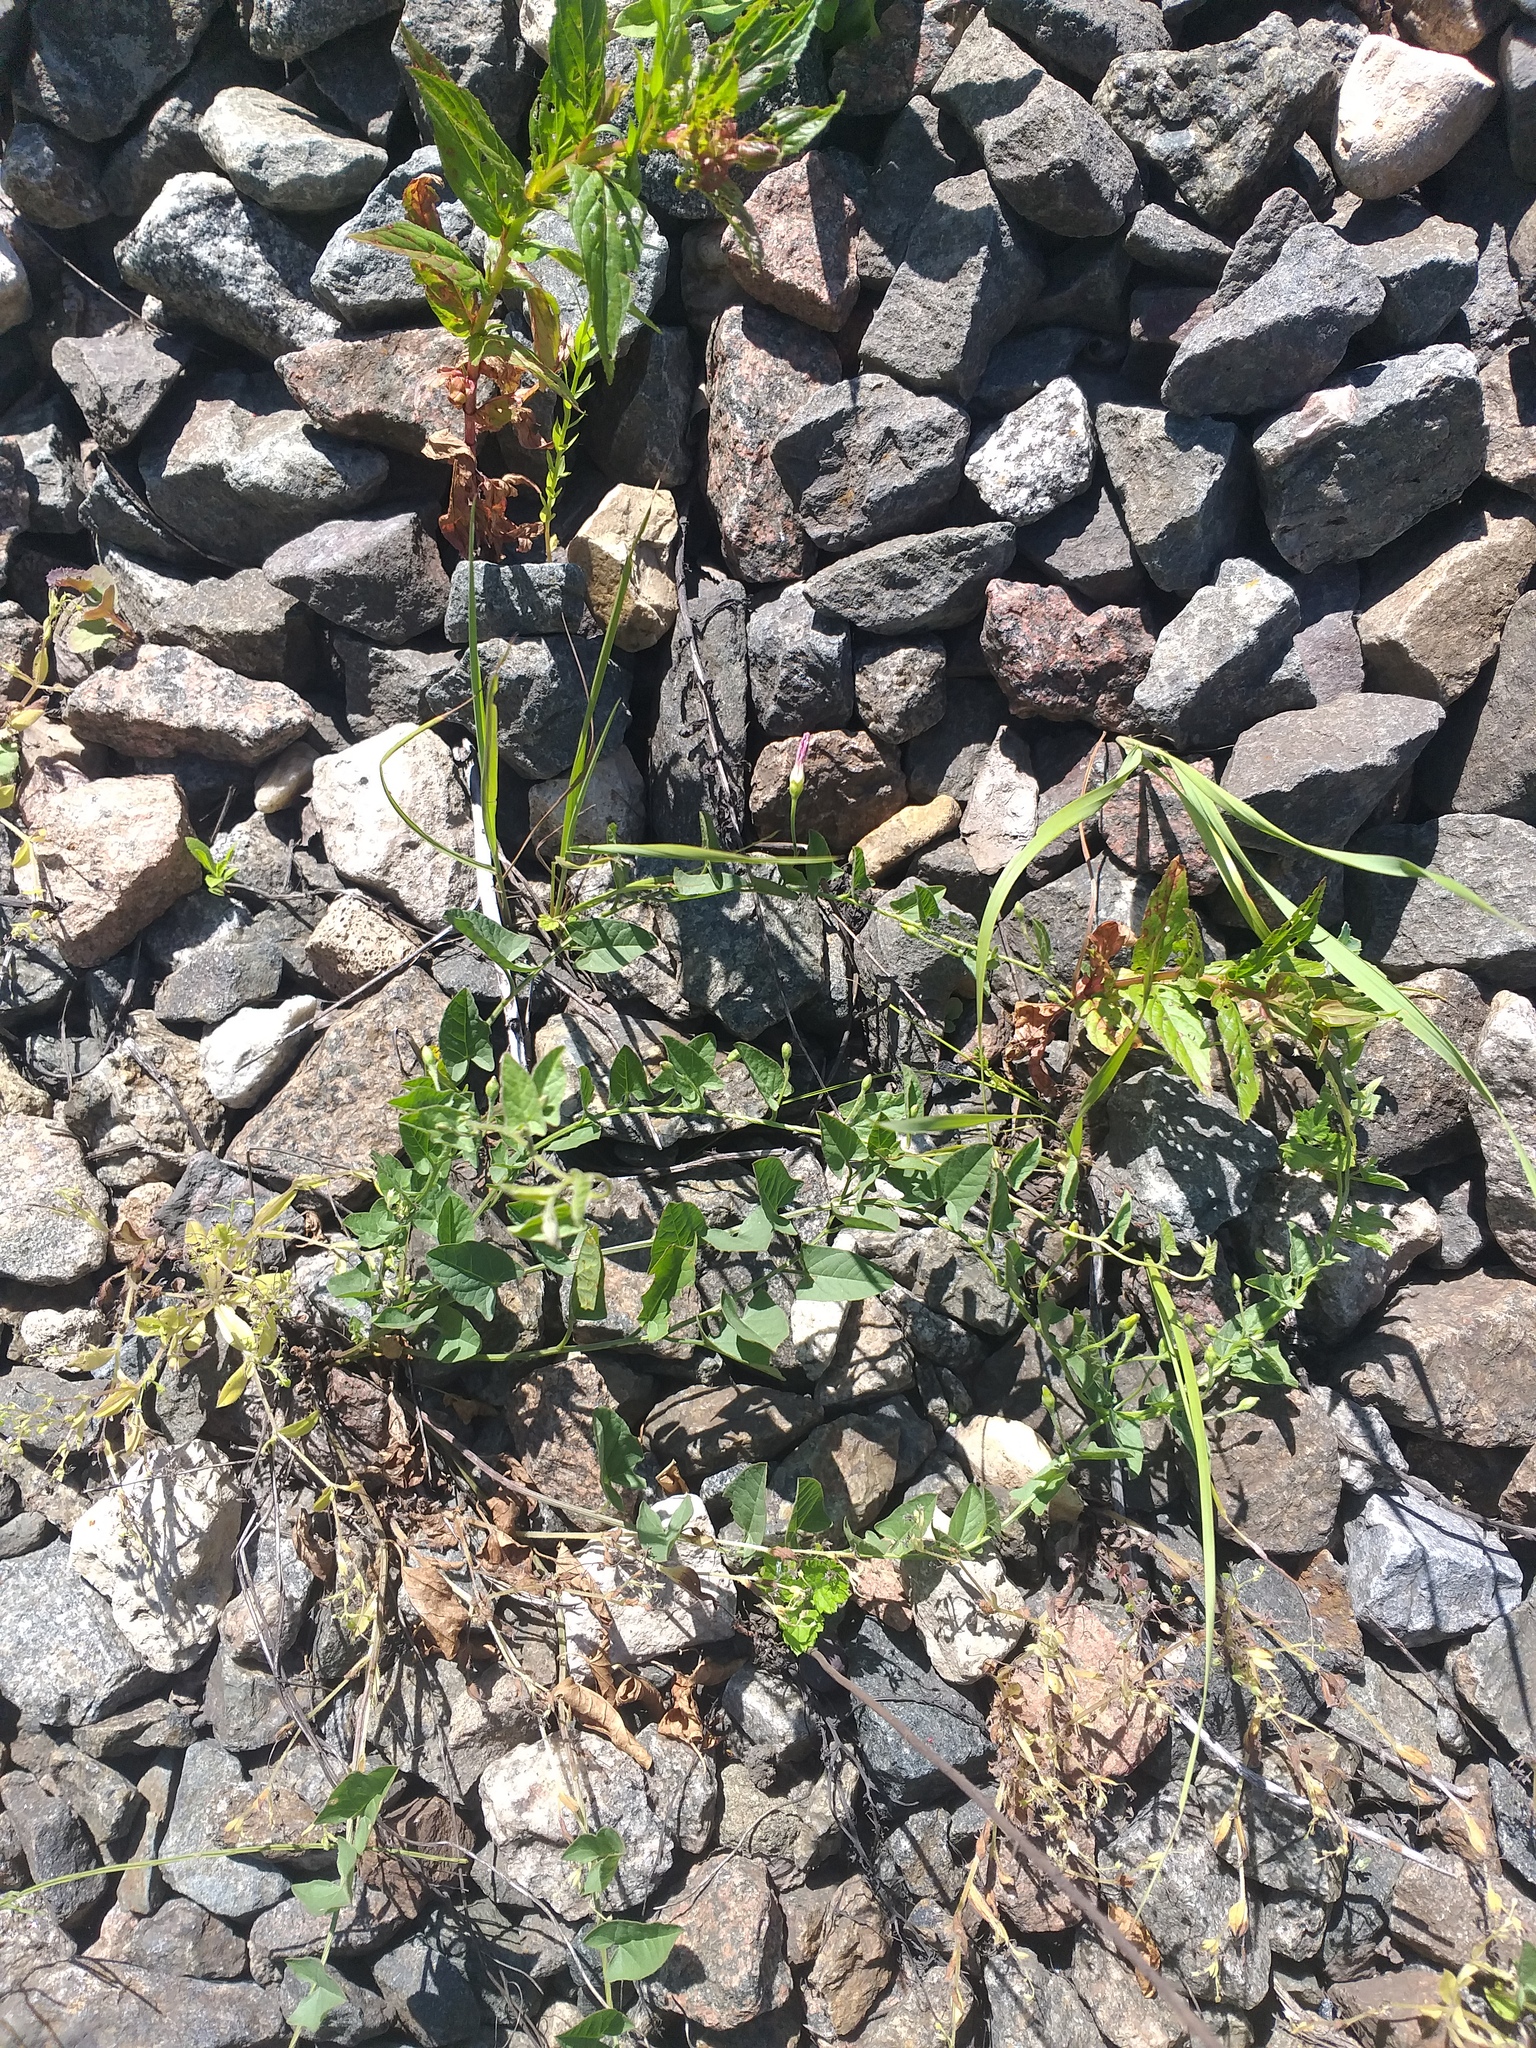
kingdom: Plantae
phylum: Tracheophyta
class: Magnoliopsida
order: Solanales
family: Convolvulaceae
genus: Convolvulus
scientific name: Convolvulus arvensis
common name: Field bindweed
